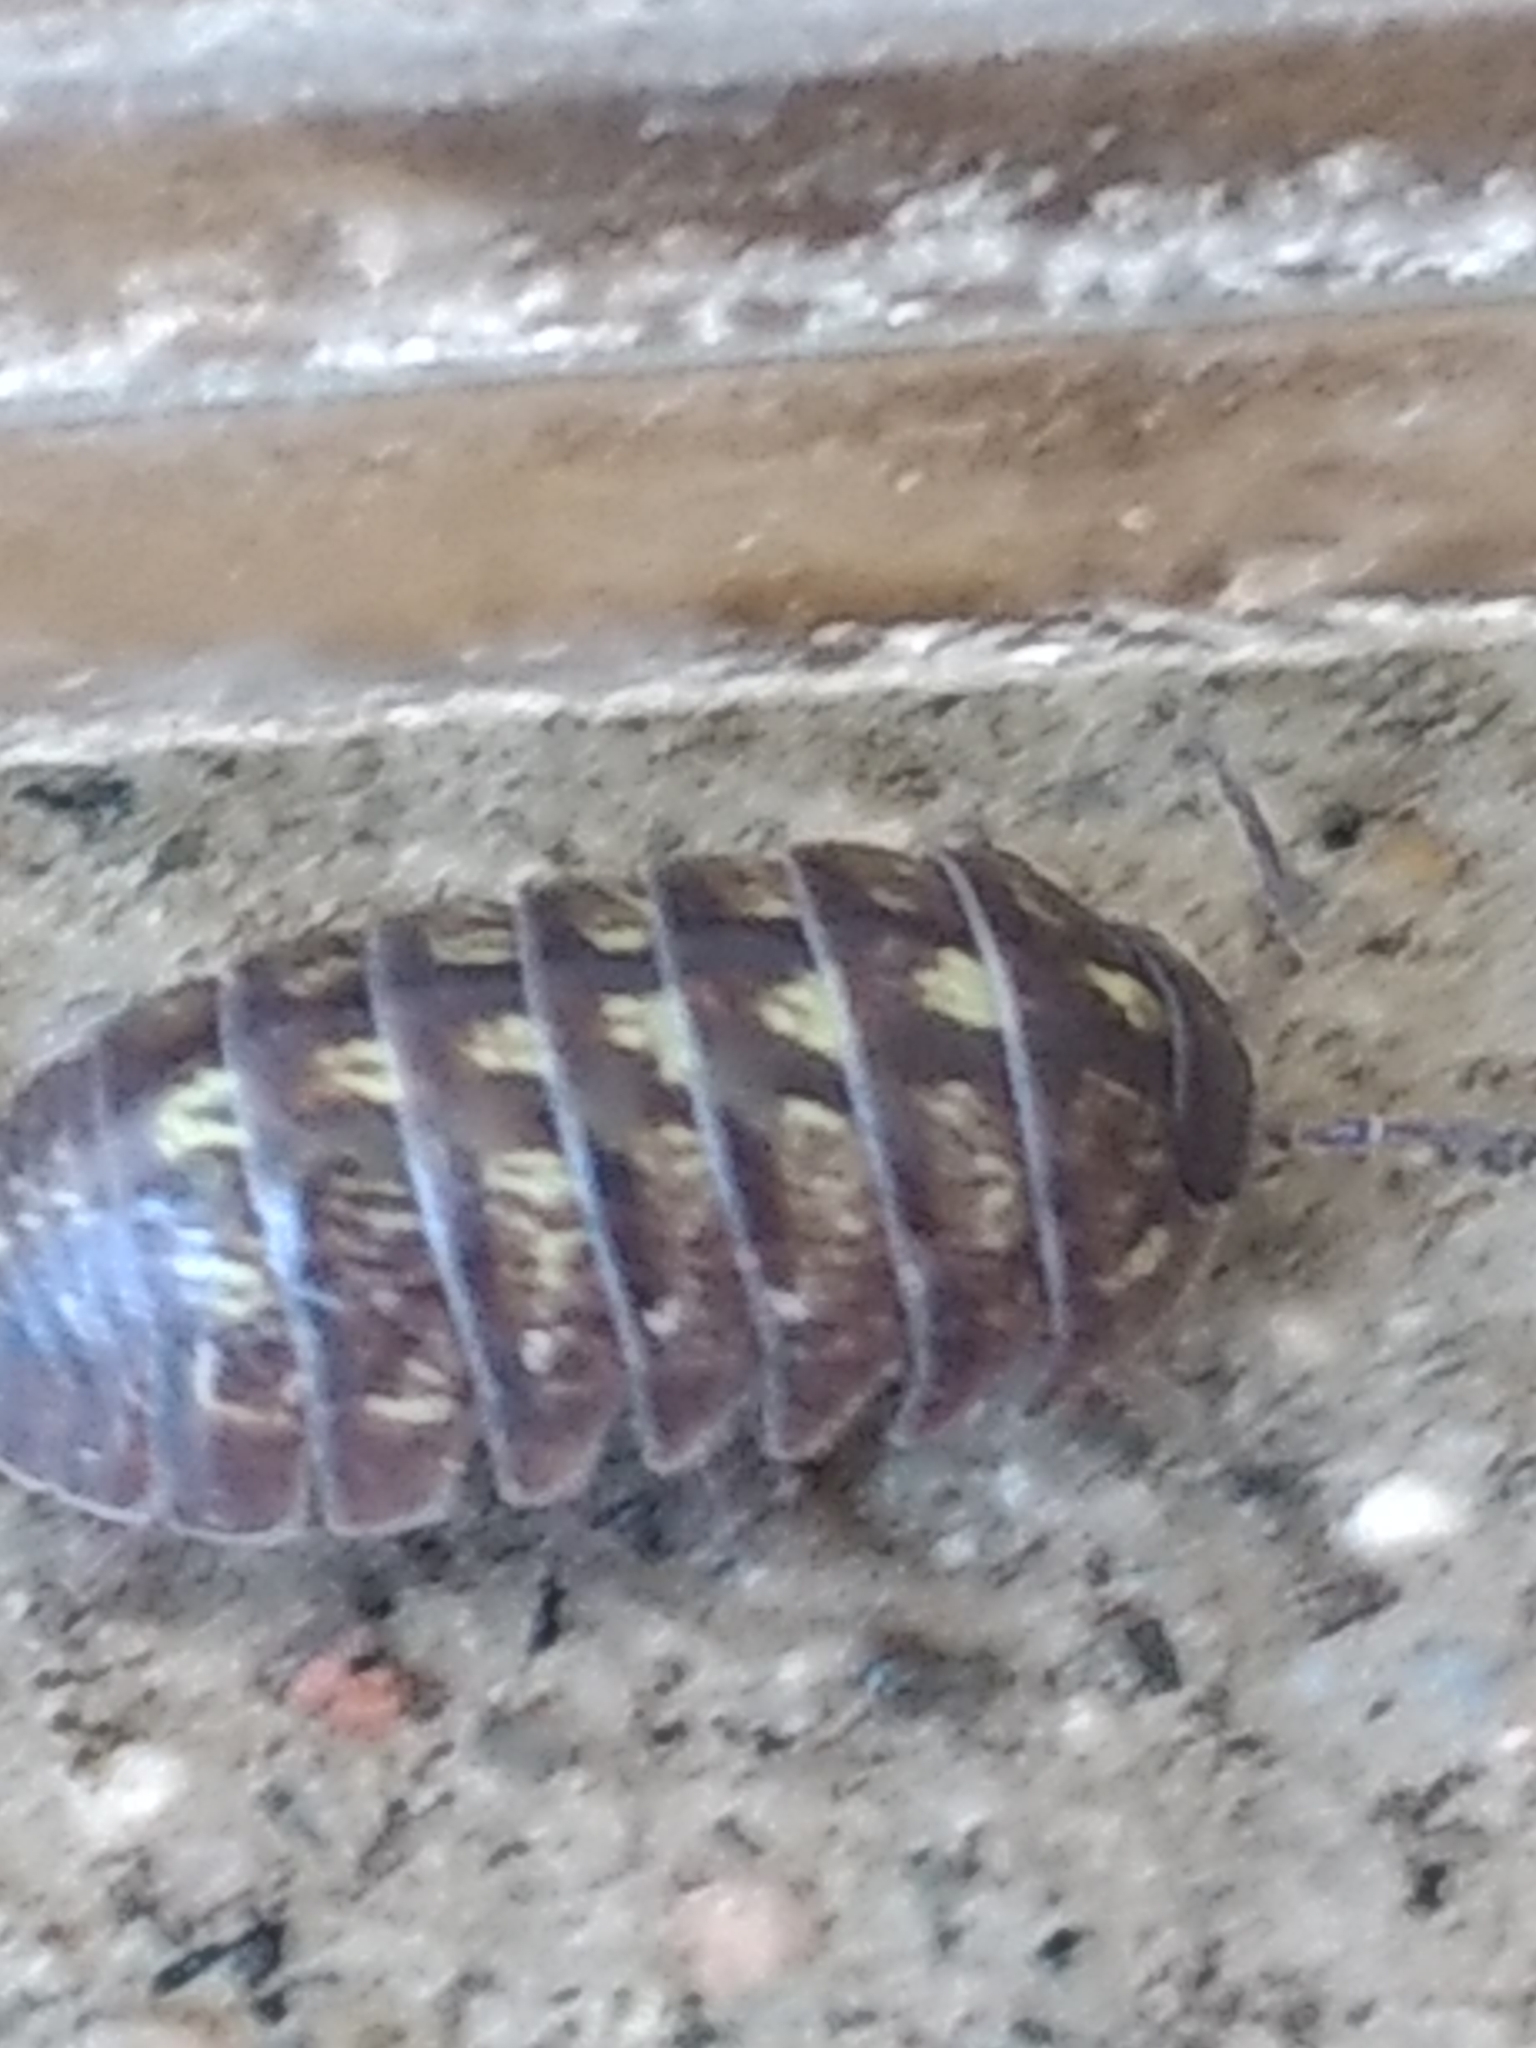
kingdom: Animalia
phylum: Arthropoda
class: Malacostraca
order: Isopoda
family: Armadillidiidae
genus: Armadillidium
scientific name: Armadillidium vulgare
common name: Common pill woodlouse
